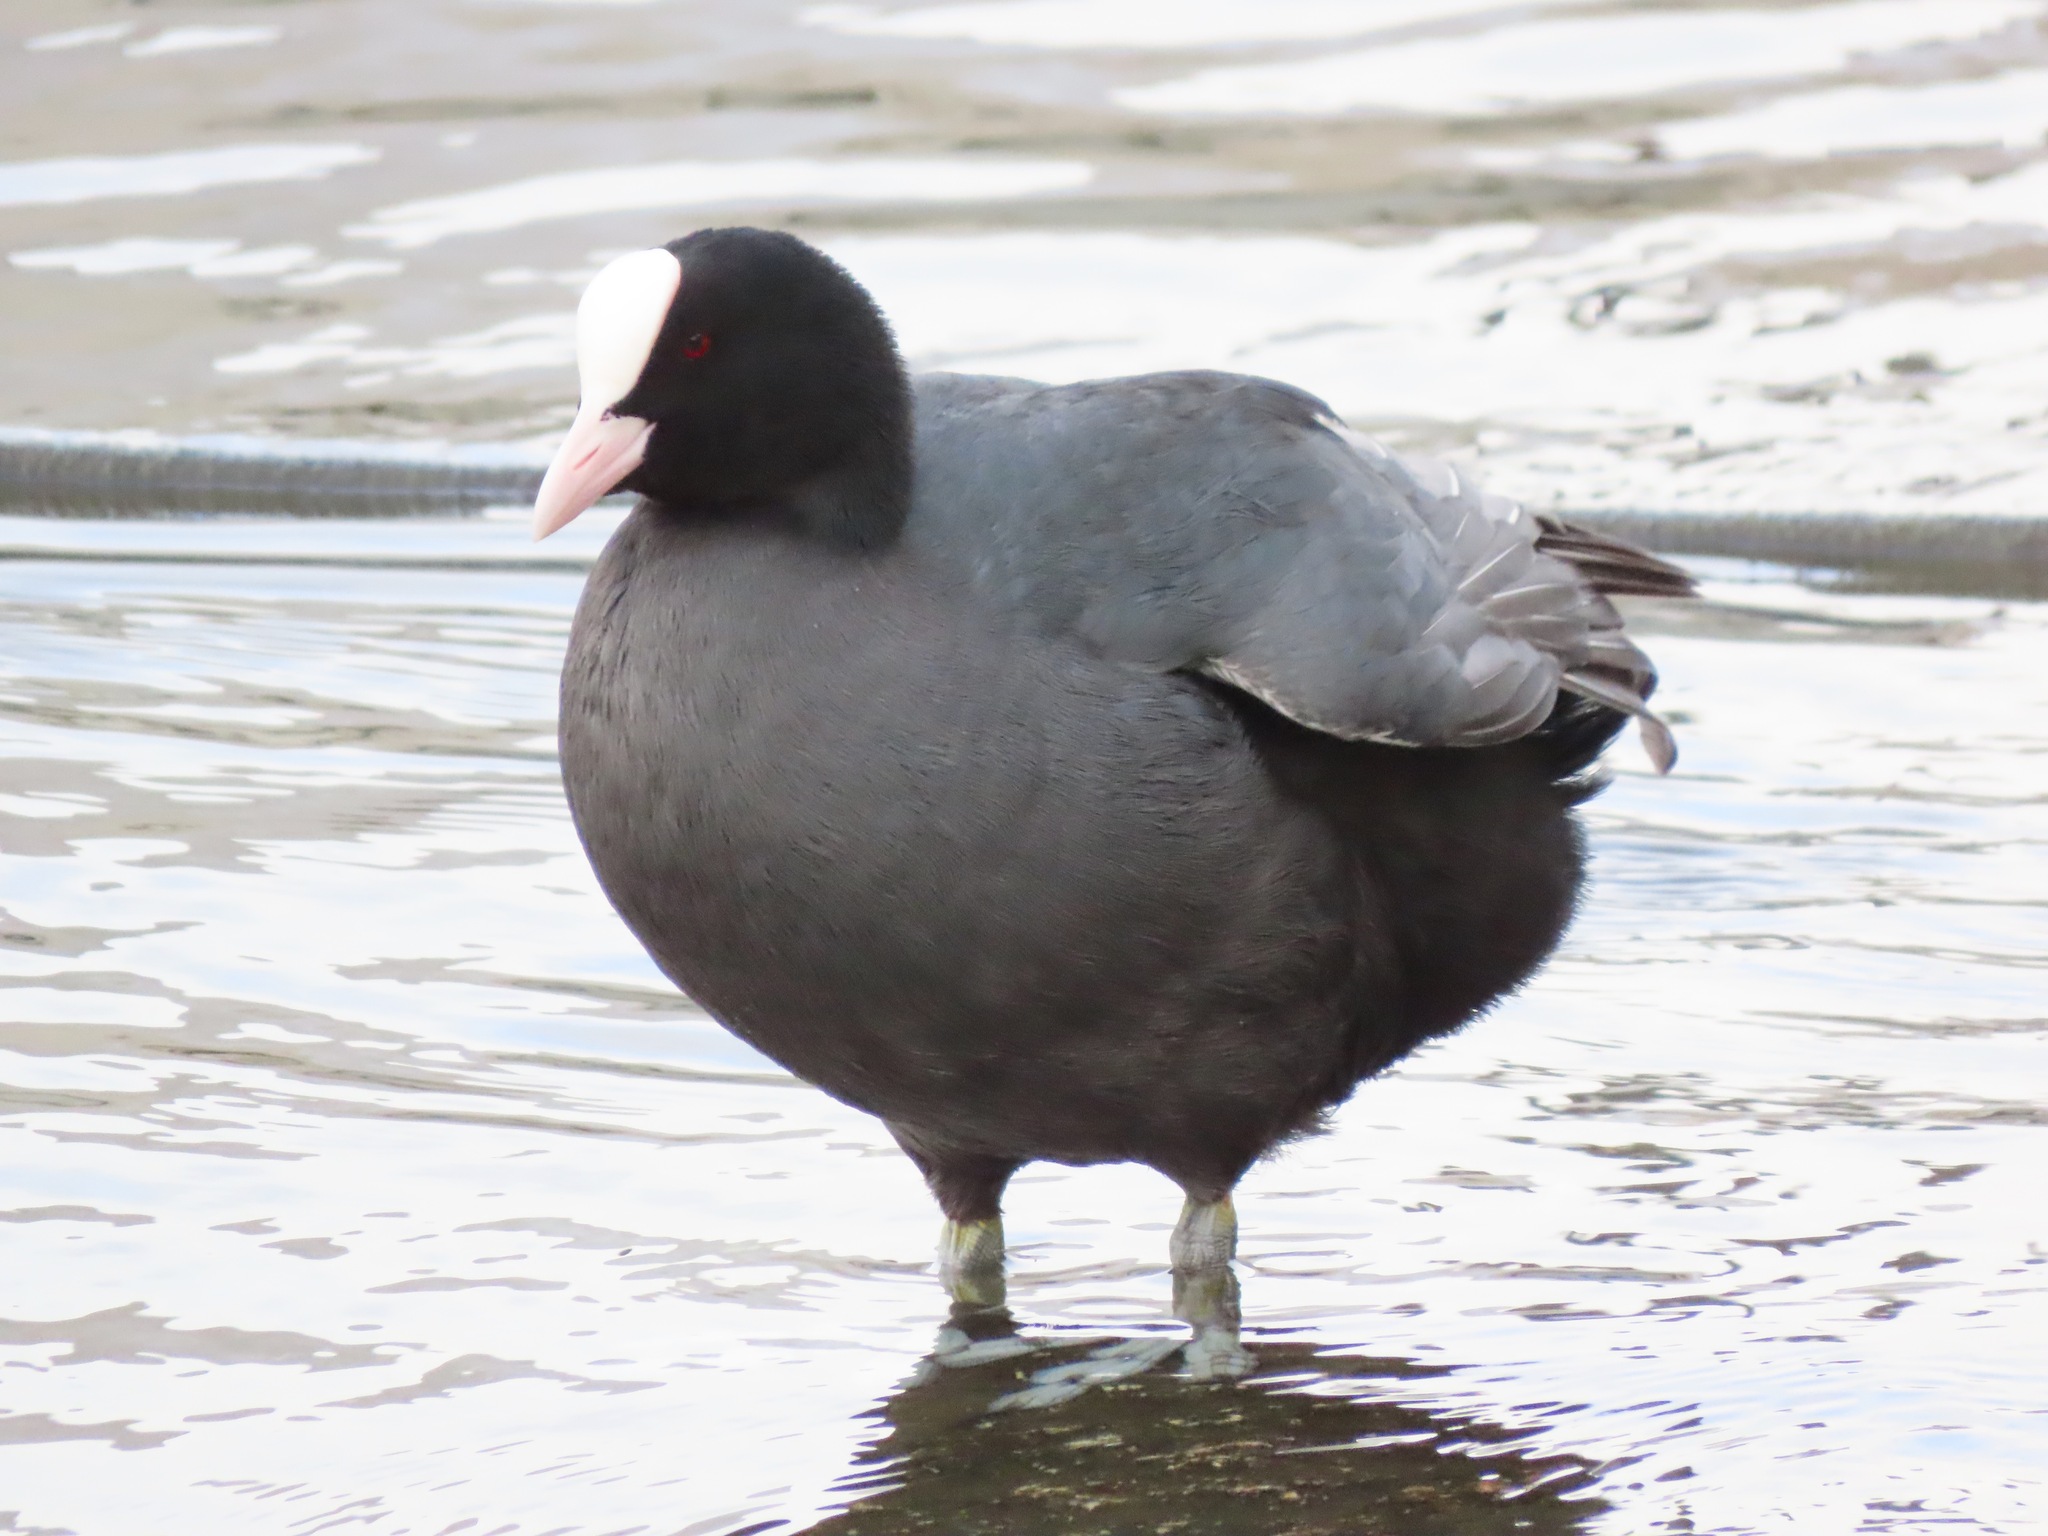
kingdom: Animalia
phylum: Chordata
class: Aves
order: Gruiformes
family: Rallidae
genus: Fulica
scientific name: Fulica atra
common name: Eurasian coot
